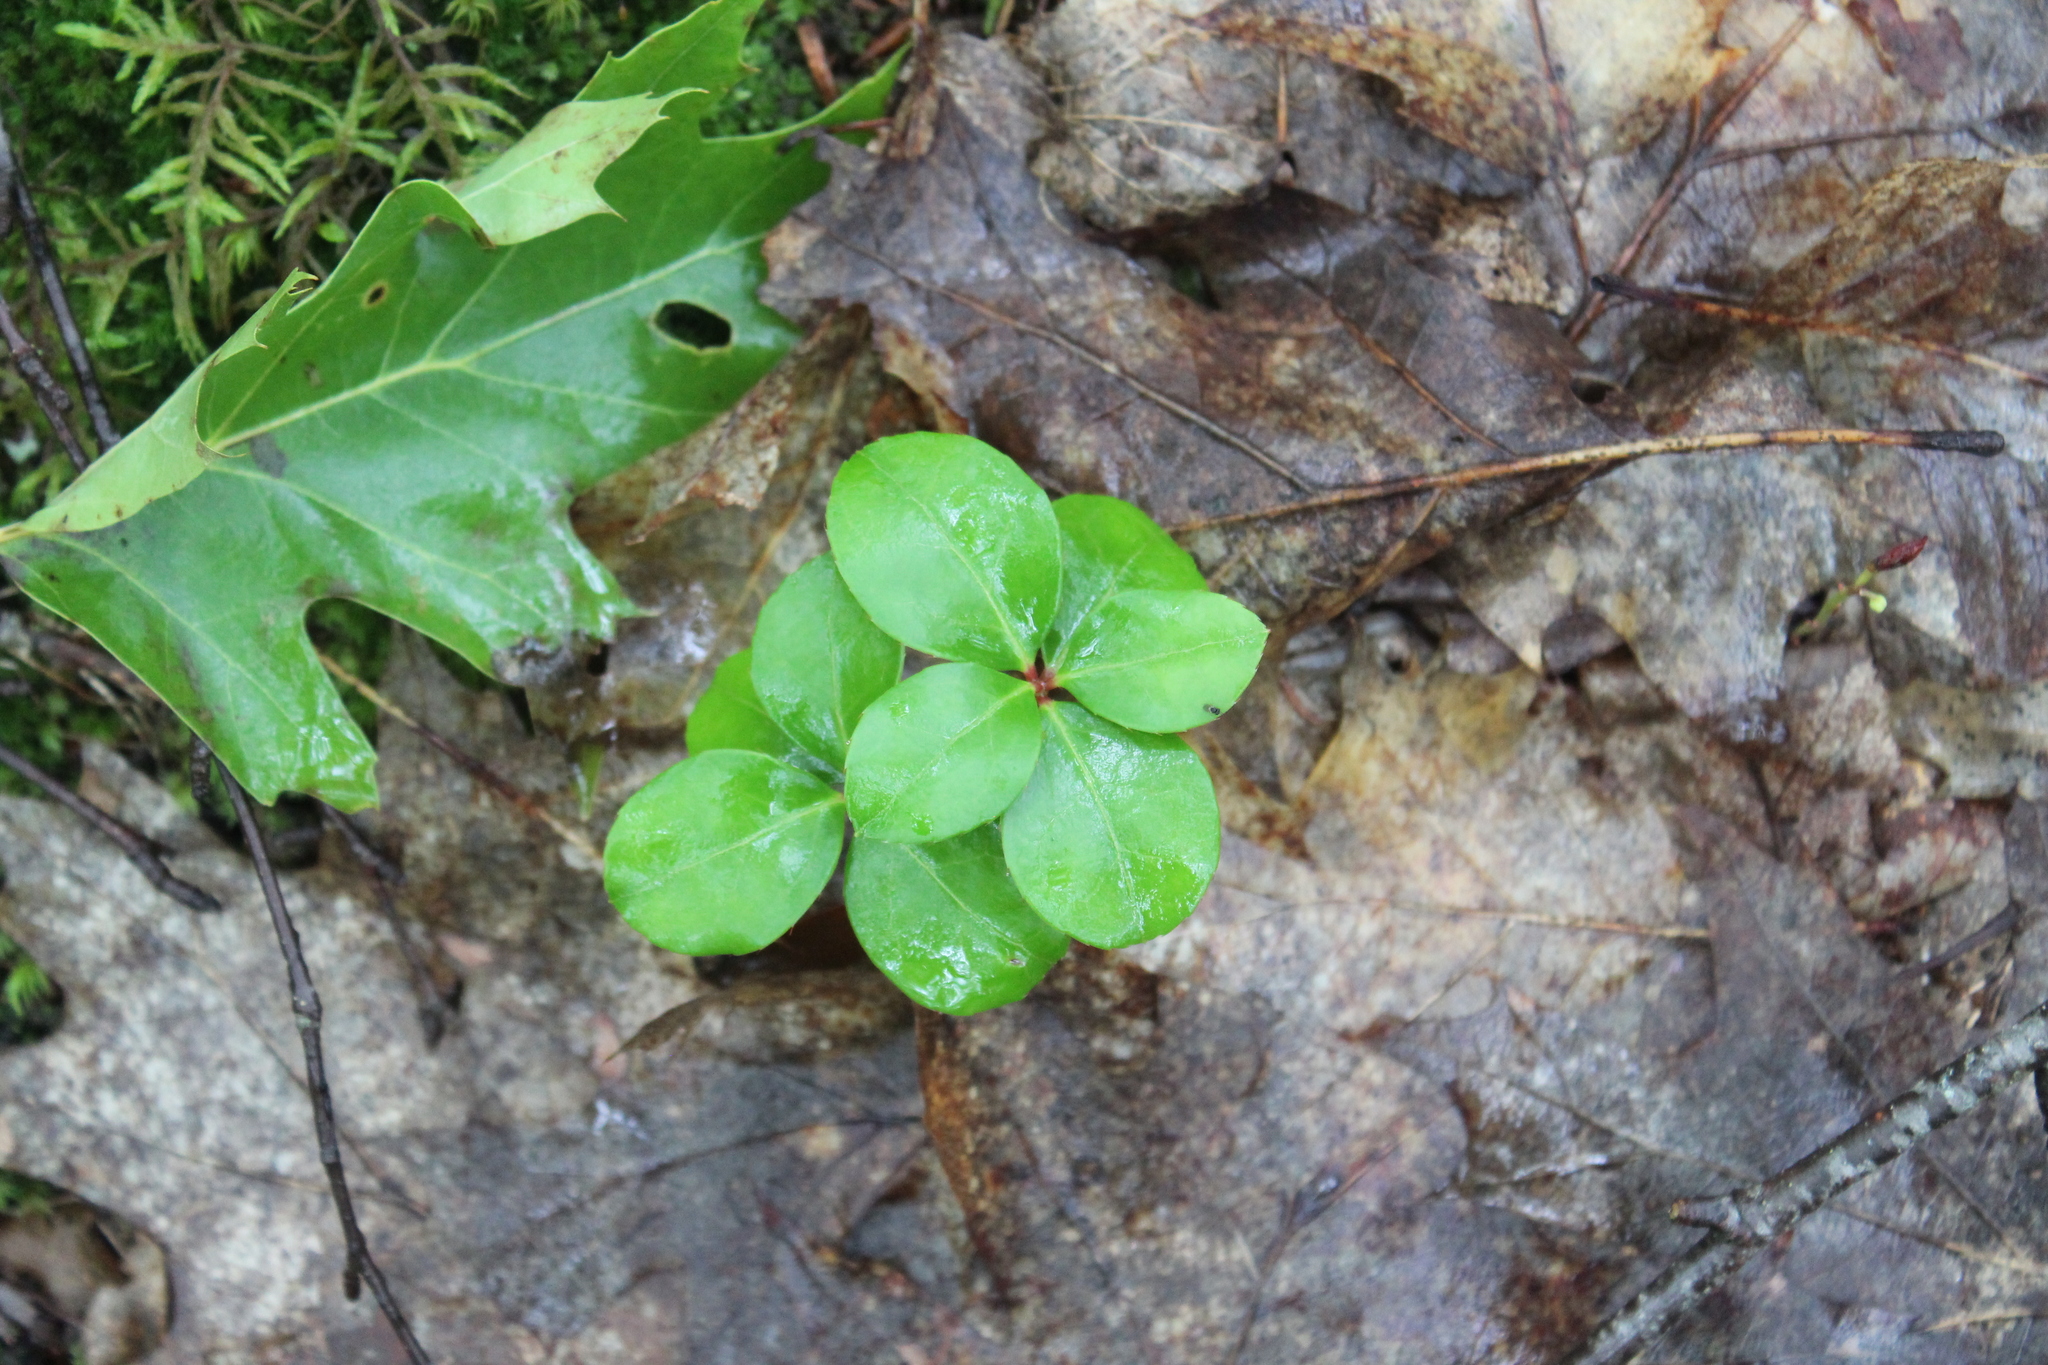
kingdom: Plantae
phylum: Tracheophyta
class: Magnoliopsida
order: Ericales
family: Ericaceae
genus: Gaultheria
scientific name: Gaultheria procumbens
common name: Checkerberry
